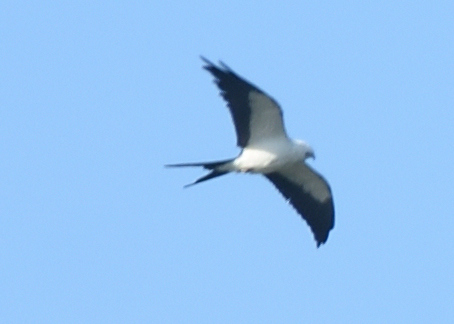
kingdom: Animalia
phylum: Chordata
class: Aves
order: Accipitriformes
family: Accipitridae
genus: Elanoides
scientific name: Elanoides forficatus
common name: Swallow-tailed kite
